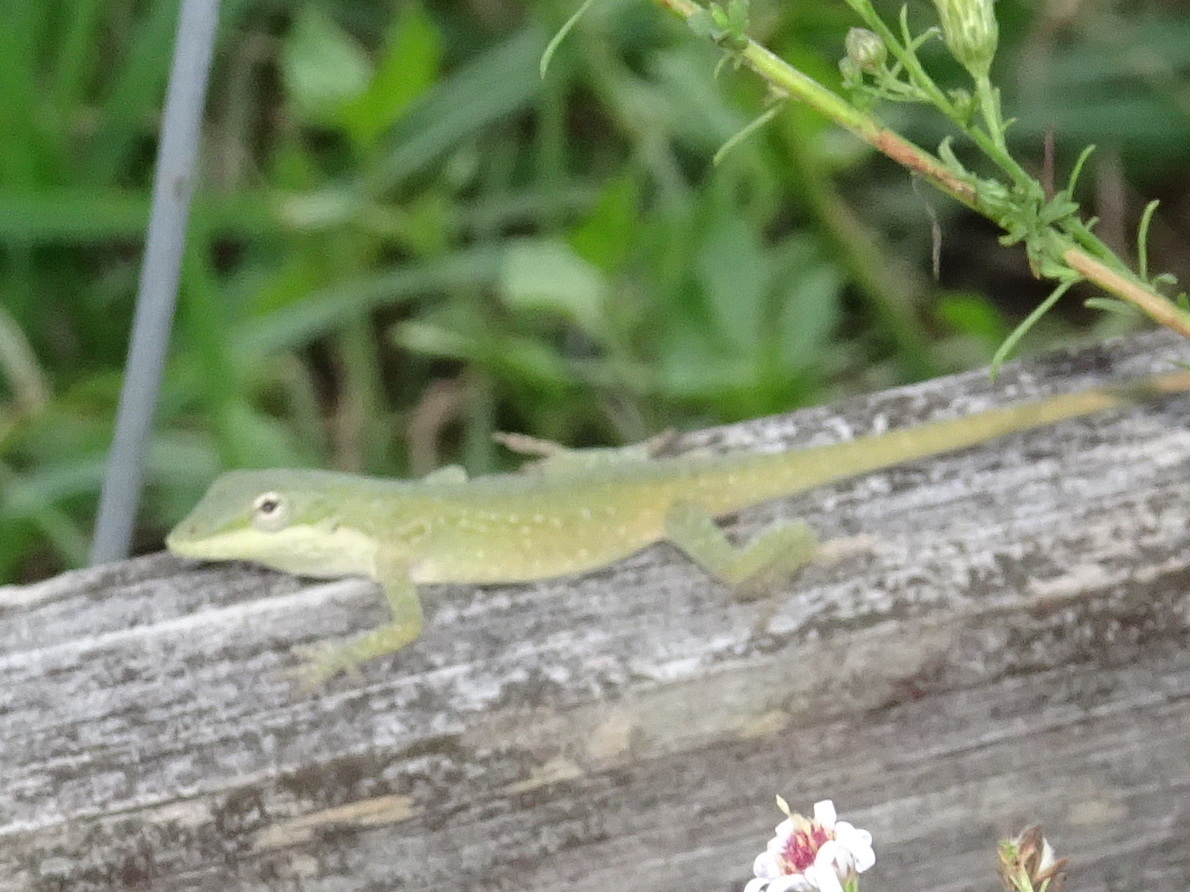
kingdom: Animalia
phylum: Chordata
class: Squamata
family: Dactyloidae
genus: Anolis
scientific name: Anolis carolinensis
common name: Green anole
